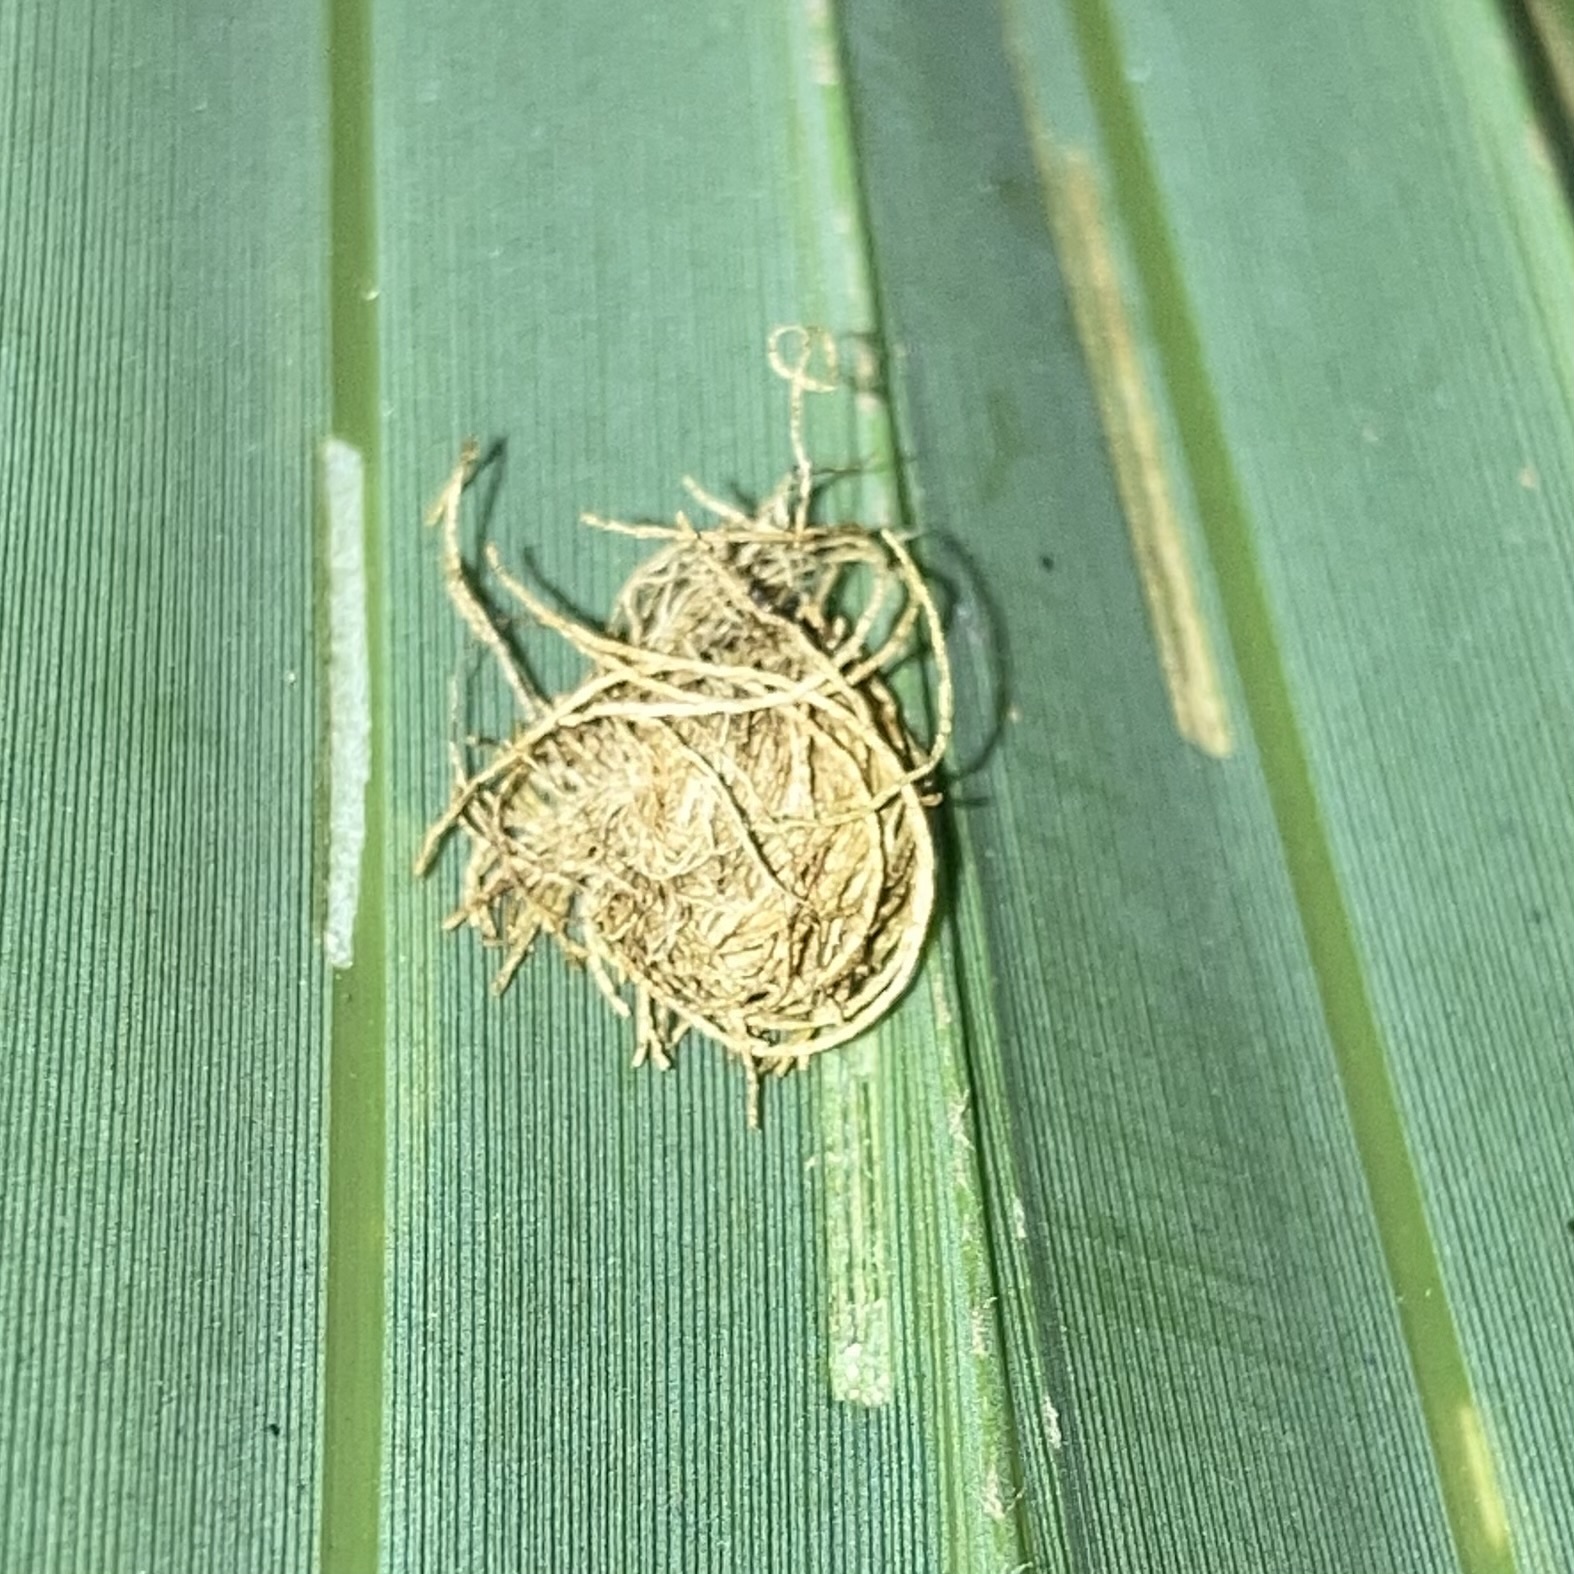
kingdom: Animalia
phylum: Arthropoda
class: Insecta
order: Coleoptera
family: Chrysomelidae
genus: Hemisphaerota
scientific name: Hemisphaerota cyanea
